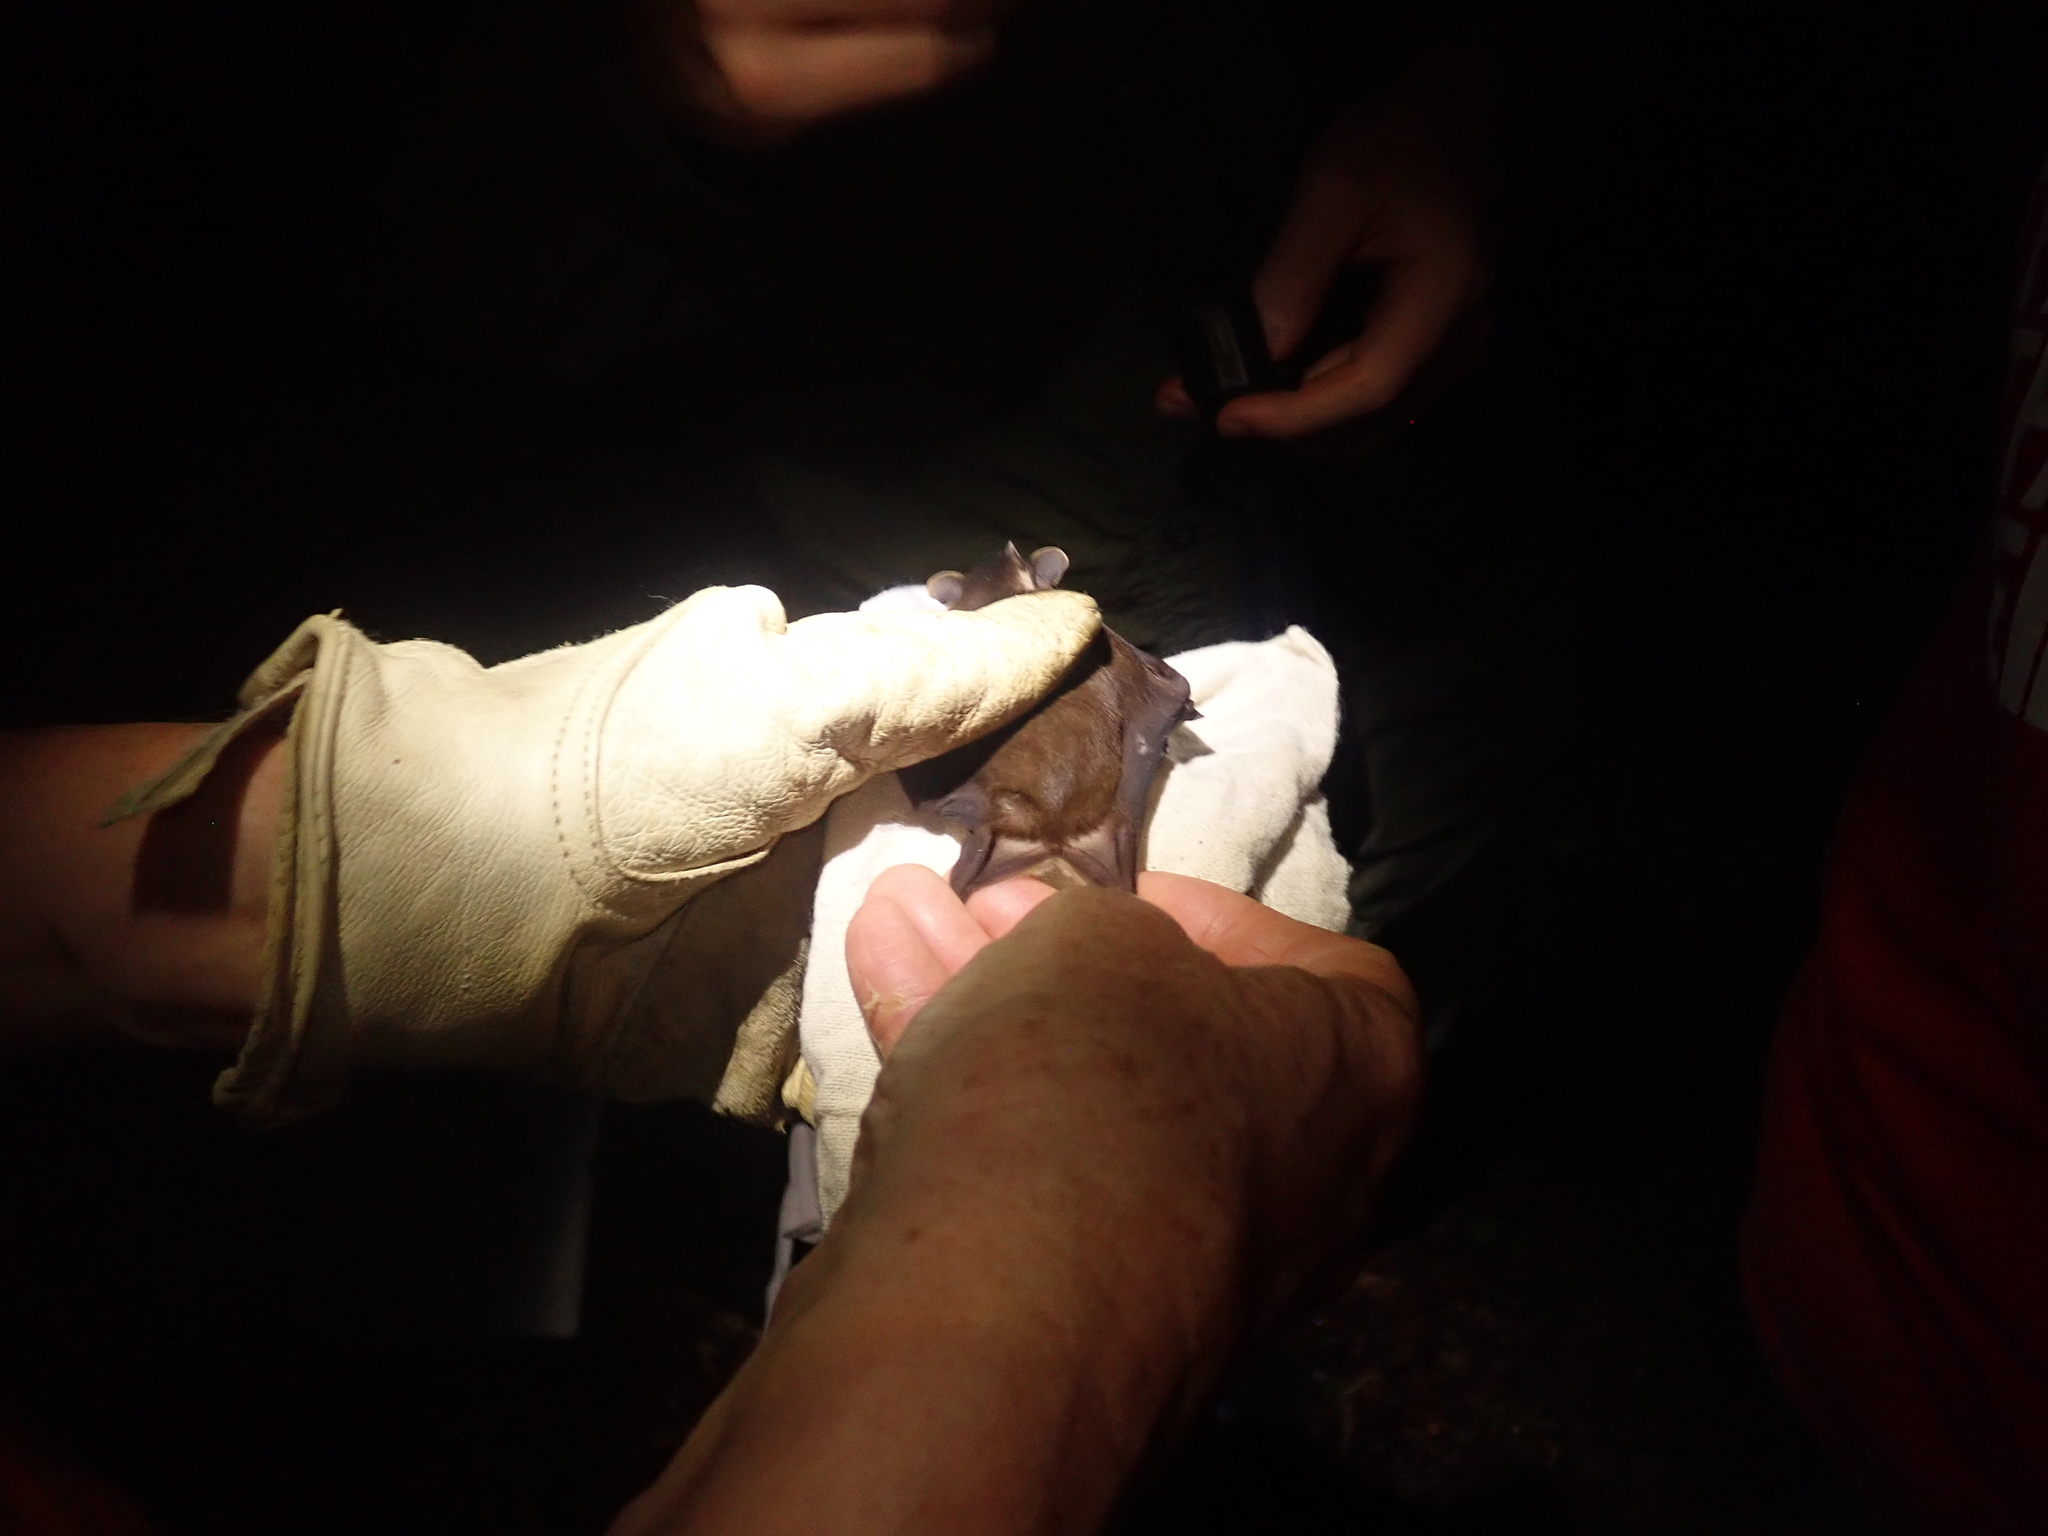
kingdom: Animalia
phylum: Chordata
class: Mammalia
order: Chiroptera
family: Phyllostomidae
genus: Enchisthenes
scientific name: Enchisthenes hartii
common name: Velvety fruit-eating bat
